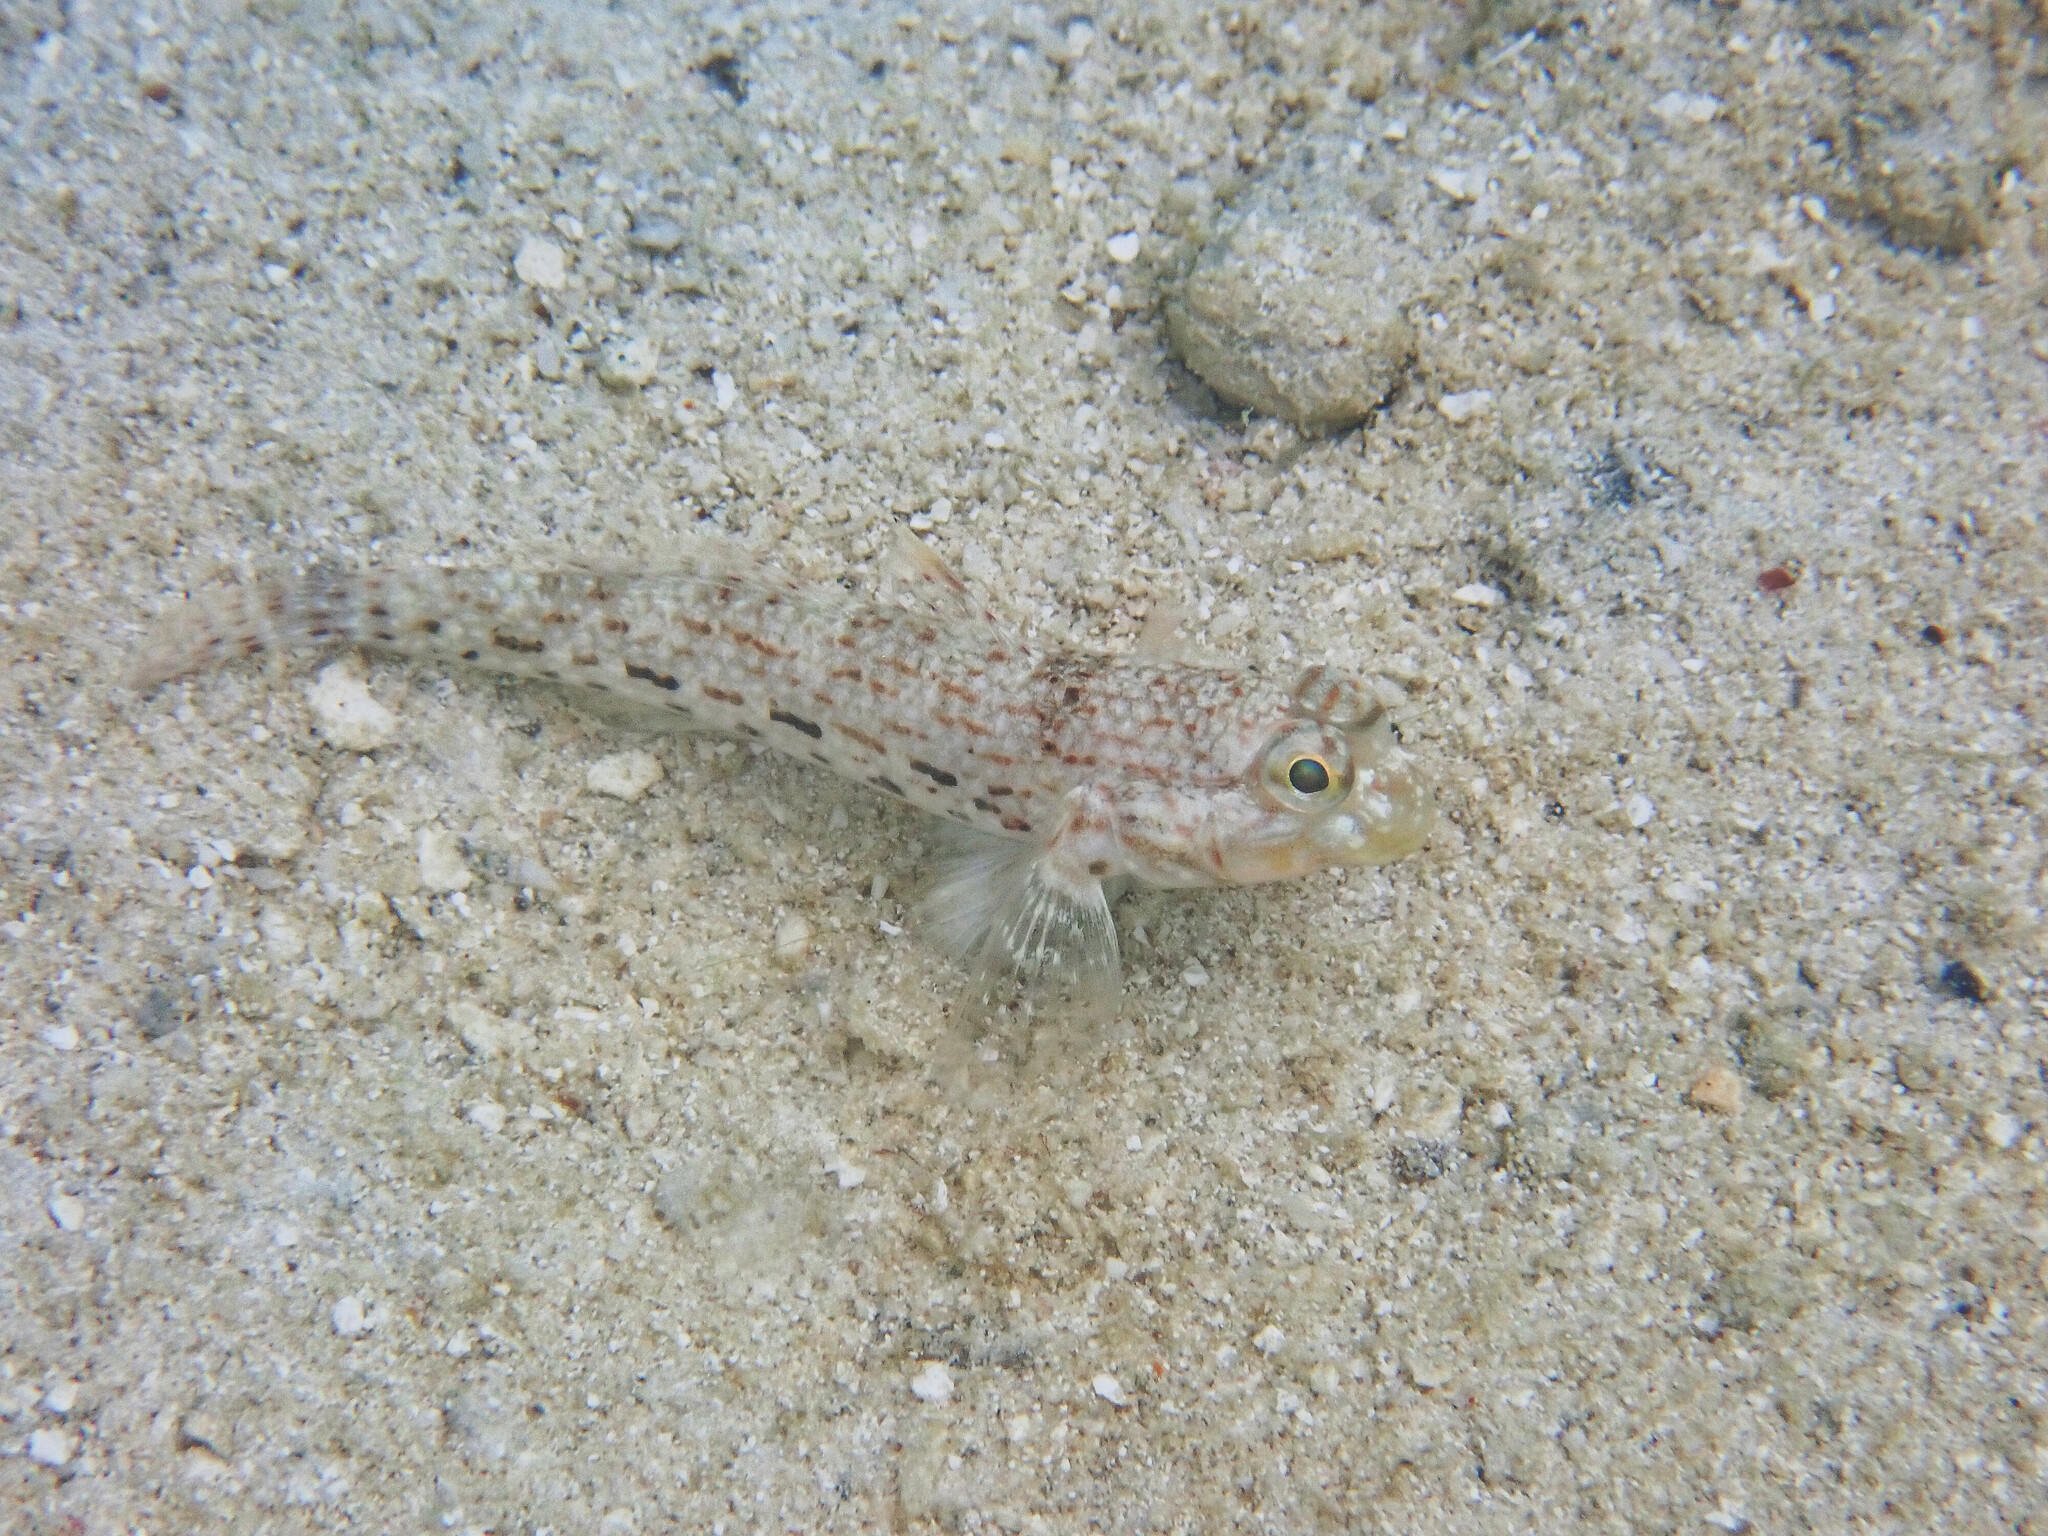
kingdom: Animalia
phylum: Chordata
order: Perciformes
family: Gobiidae
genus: Istigobius
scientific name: Istigobius ornatus
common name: Ornate goby
